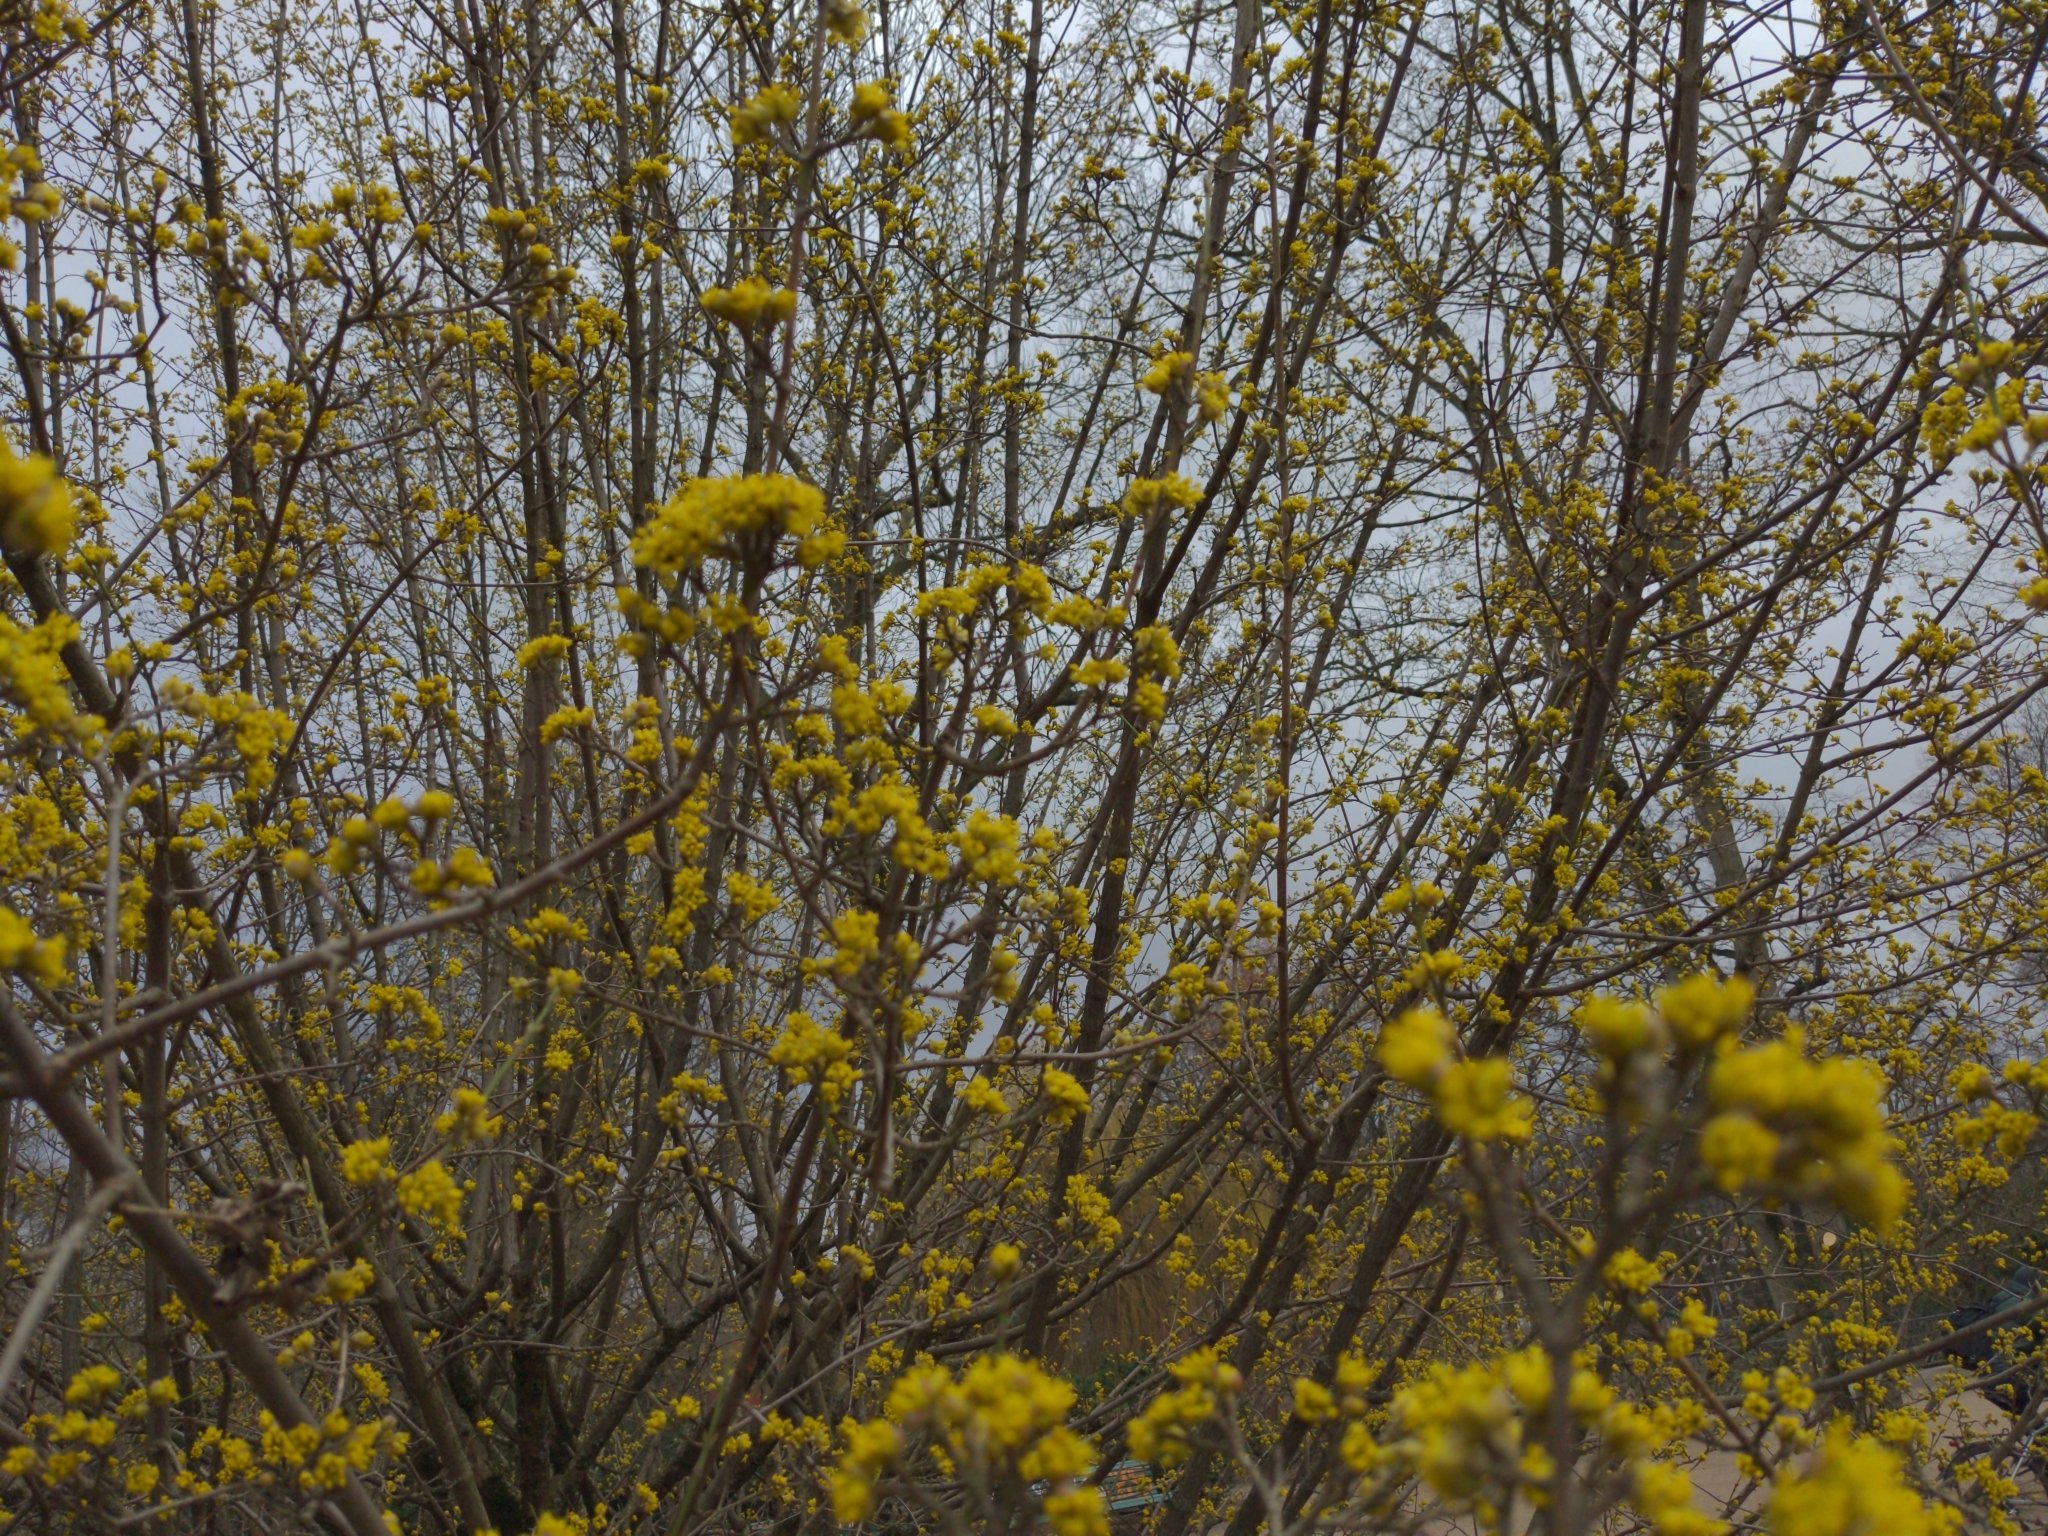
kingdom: Plantae
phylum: Tracheophyta
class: Magnoliopsida
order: Cornales
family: Cornaceae
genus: Cornus
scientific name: Cornus mas
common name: Cornelian-cherry
